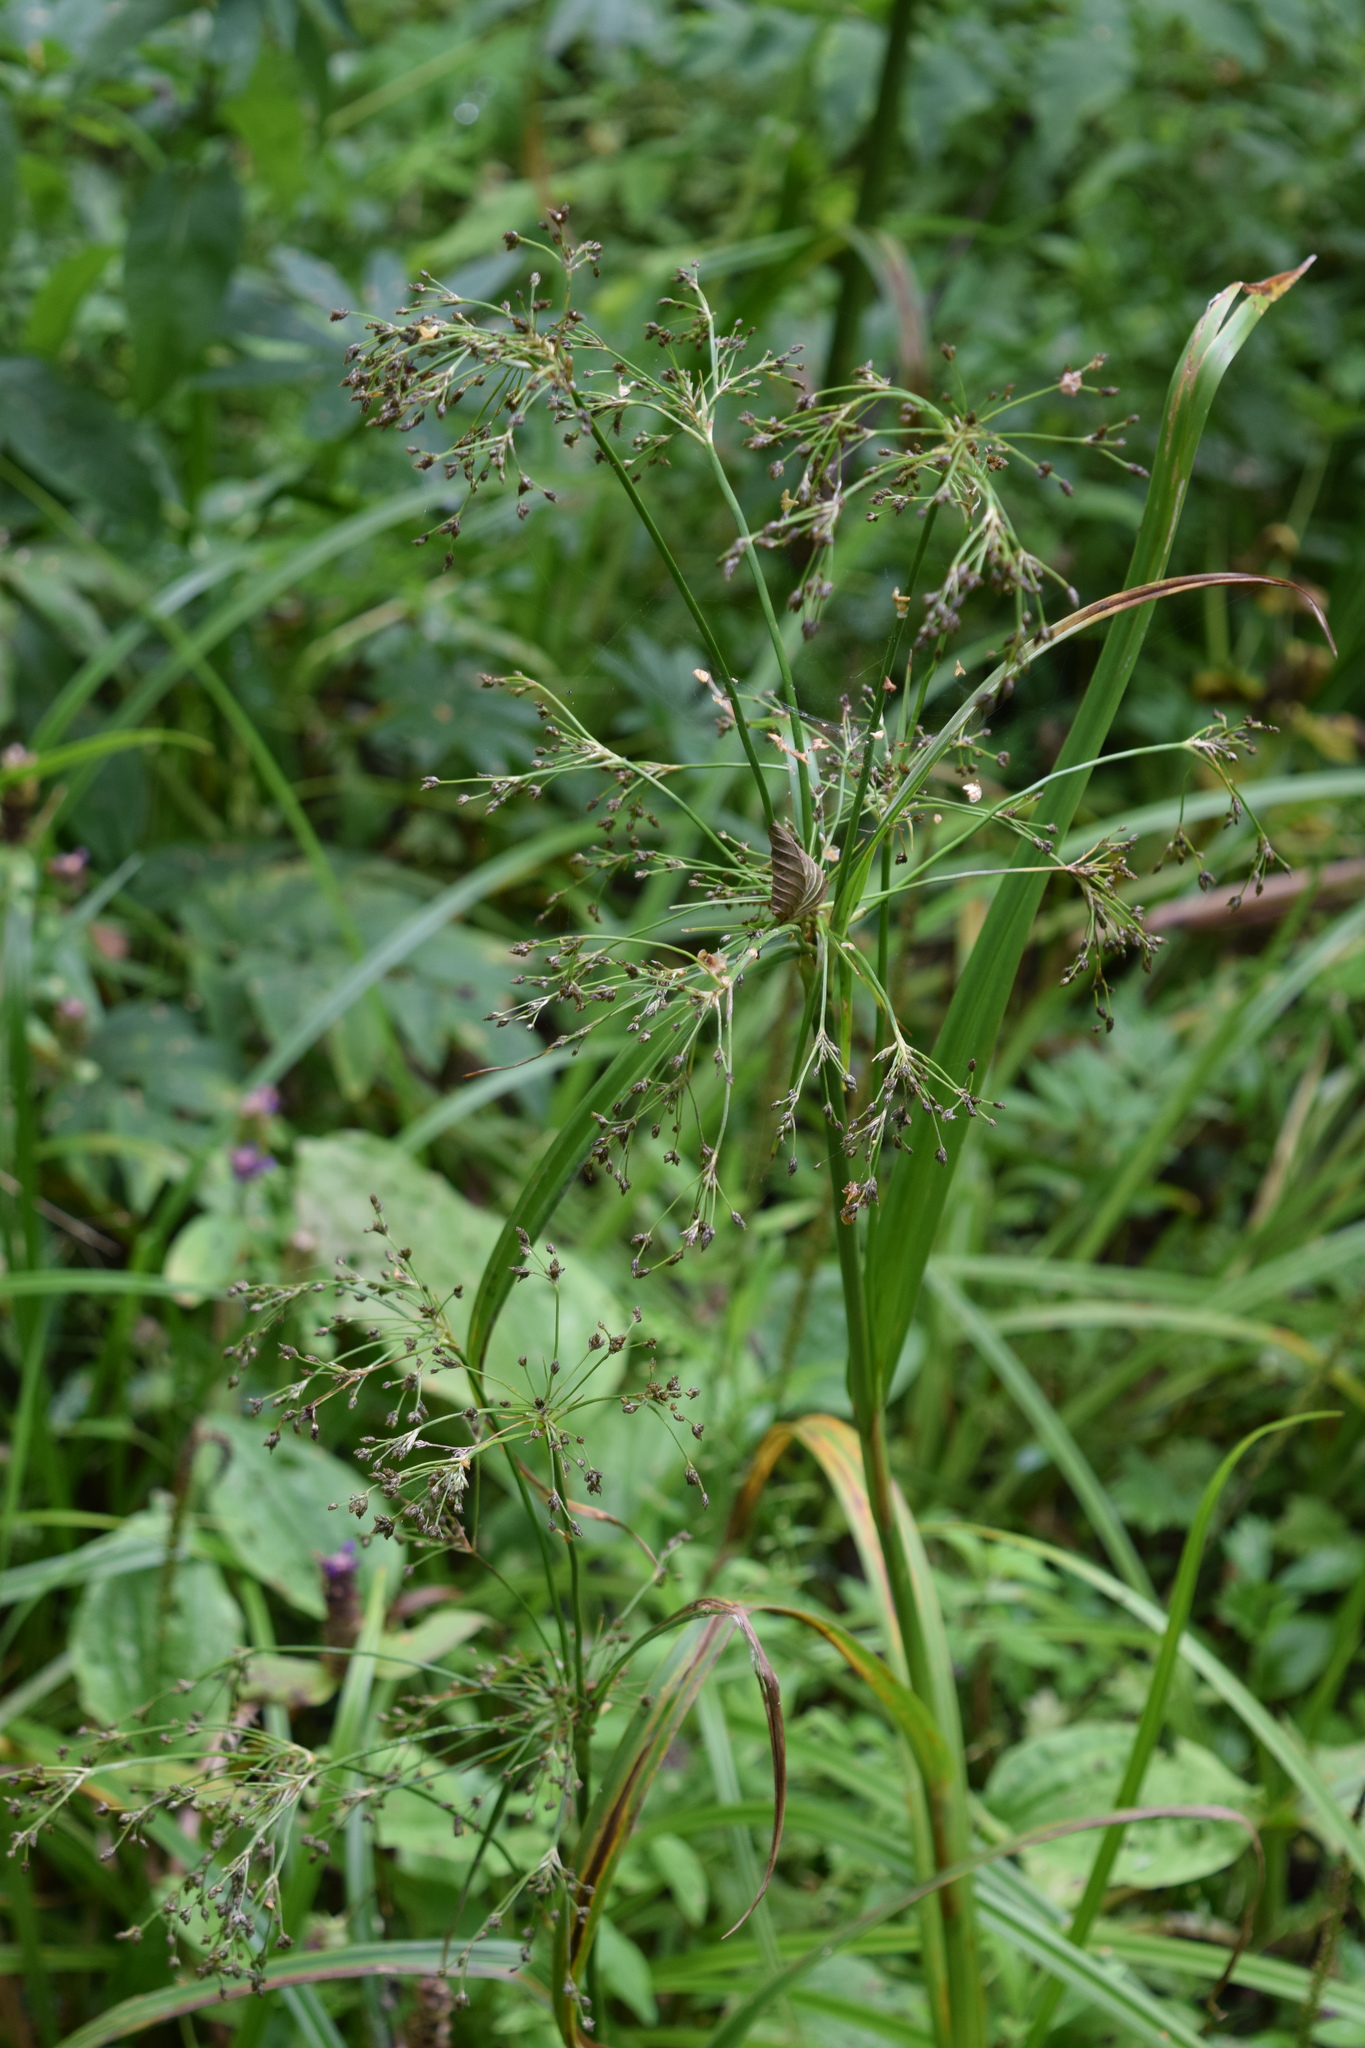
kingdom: Plantae
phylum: Tracheophyta
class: Liliopsida
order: Poales
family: Cyperaceae
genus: Scirpus
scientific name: Scirpus sylvaticus
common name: Wood club-rush
